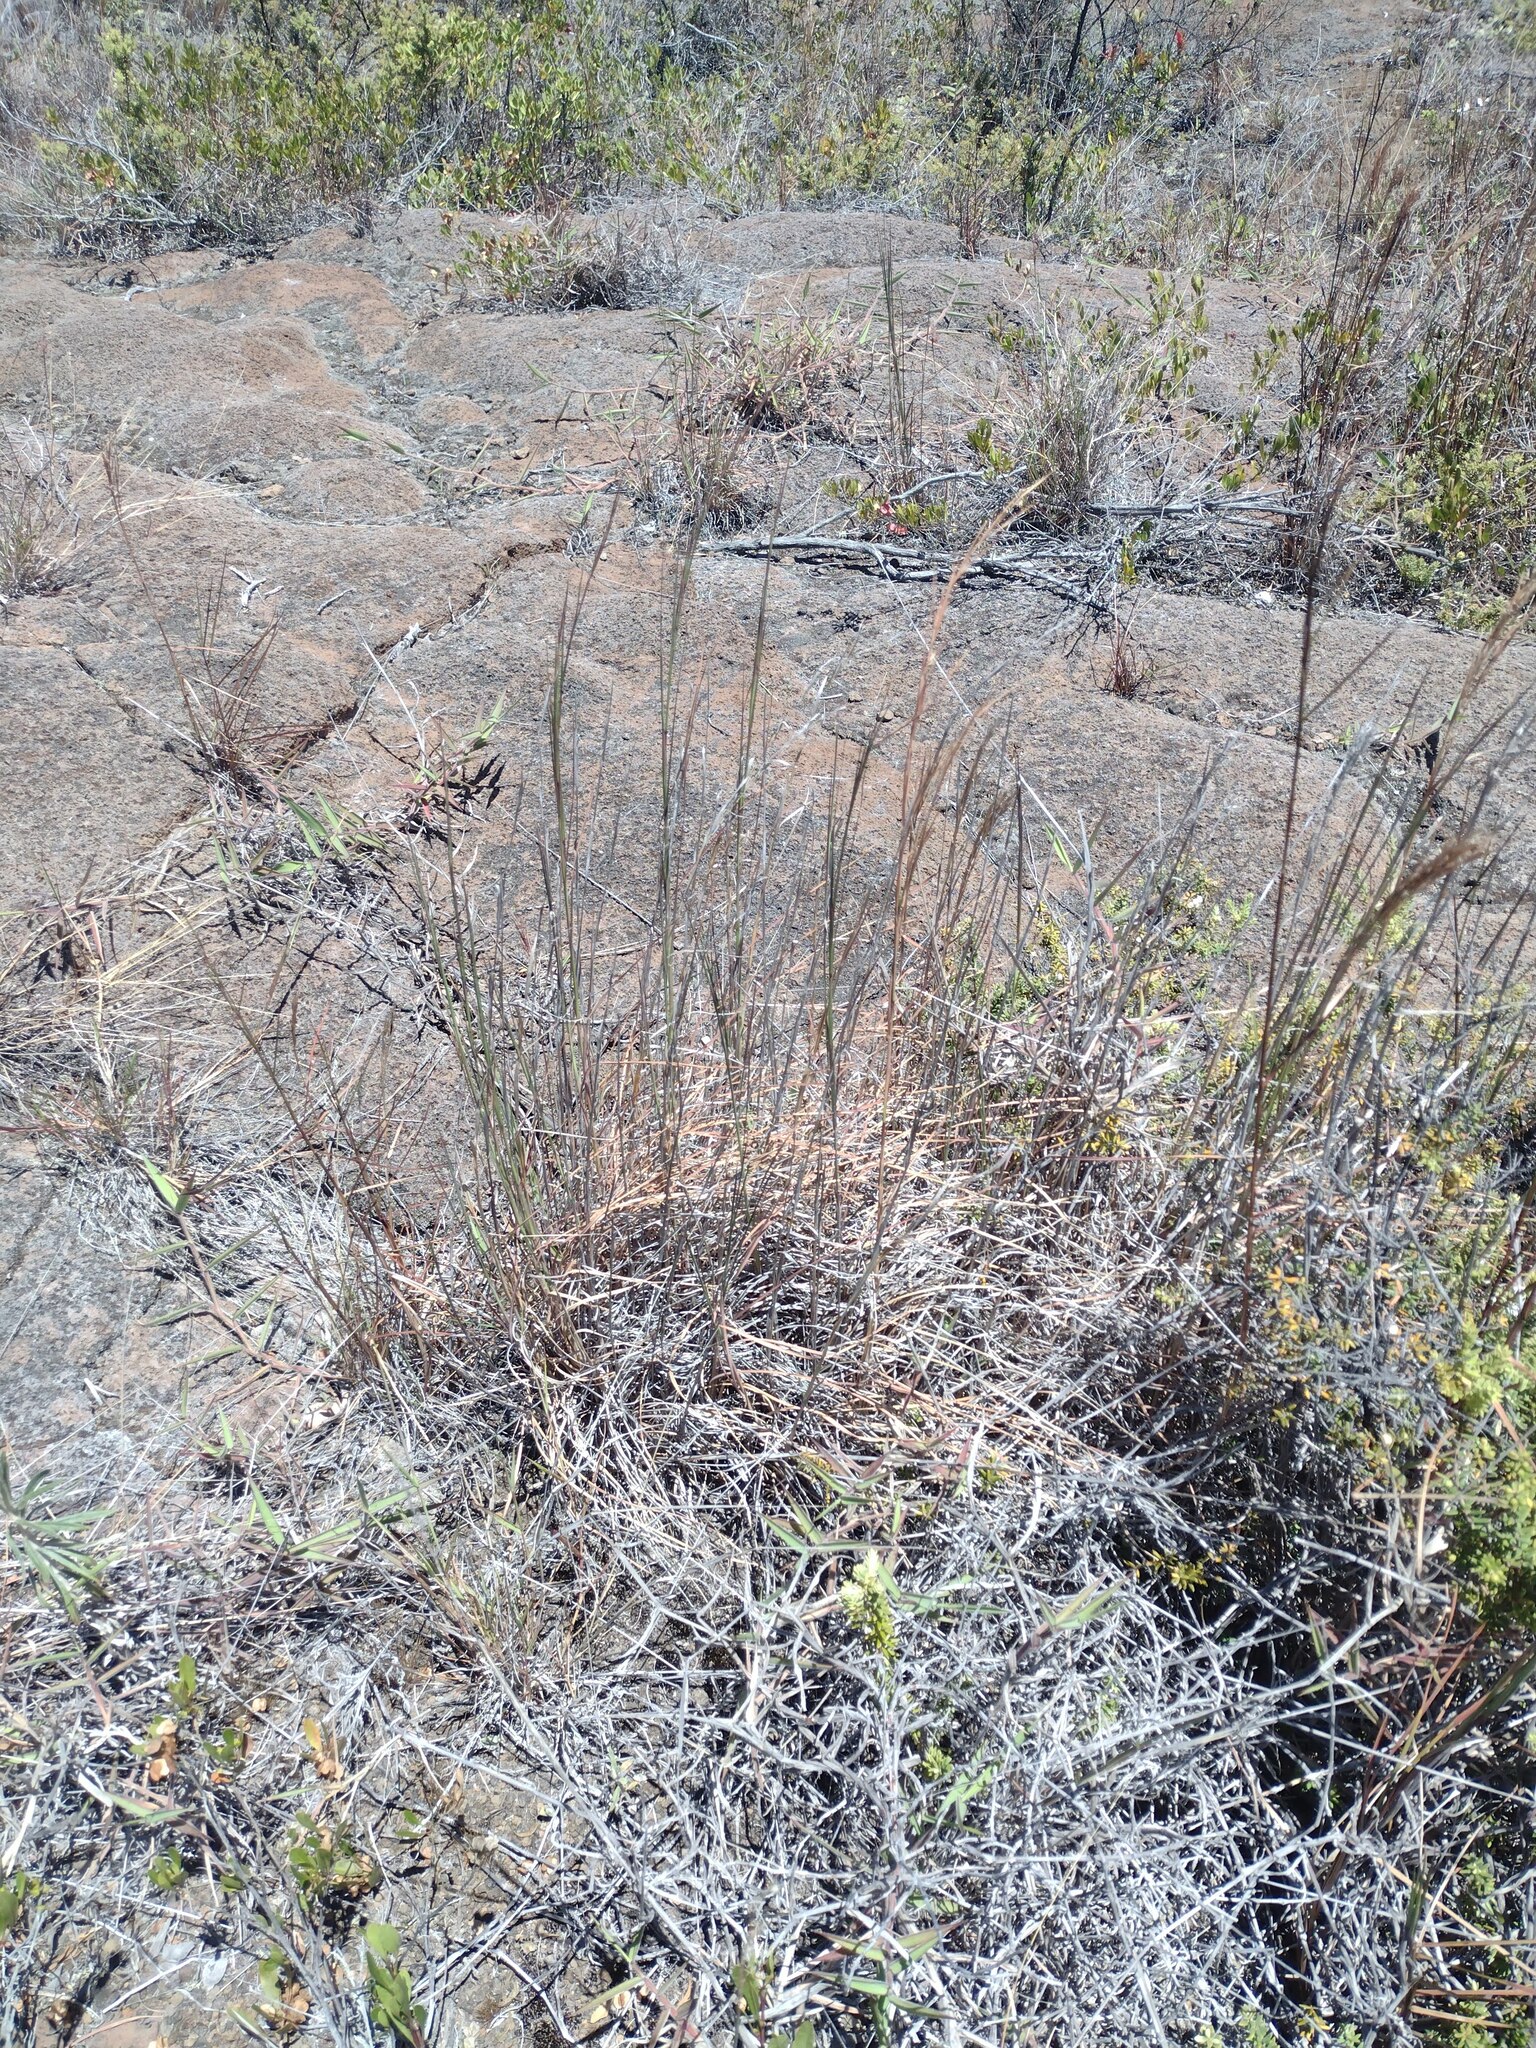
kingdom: Plantae
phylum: Tracheophyta
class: Liliopsida
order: Poales
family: Poaceae
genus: Andropogon
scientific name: Andropogon virginicus
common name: Broomsedge bluestem
